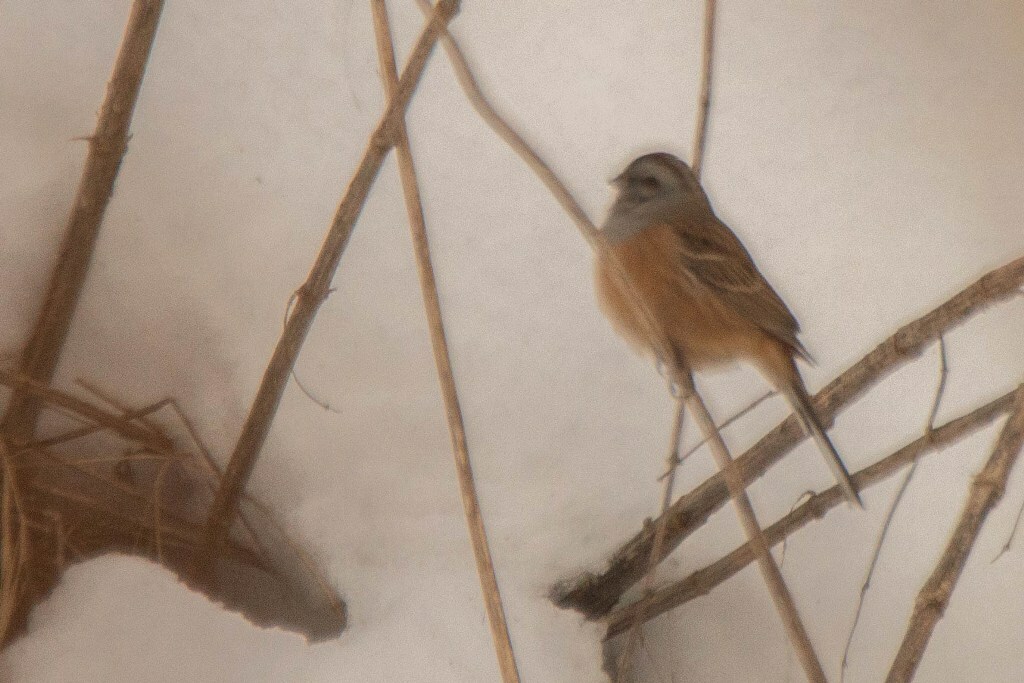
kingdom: Animalia
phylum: Chordata
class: Aves
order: Passeriformes
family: Emberizidae
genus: Emberiza
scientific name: Emberiza godlewskii
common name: Godlewski's bunting
